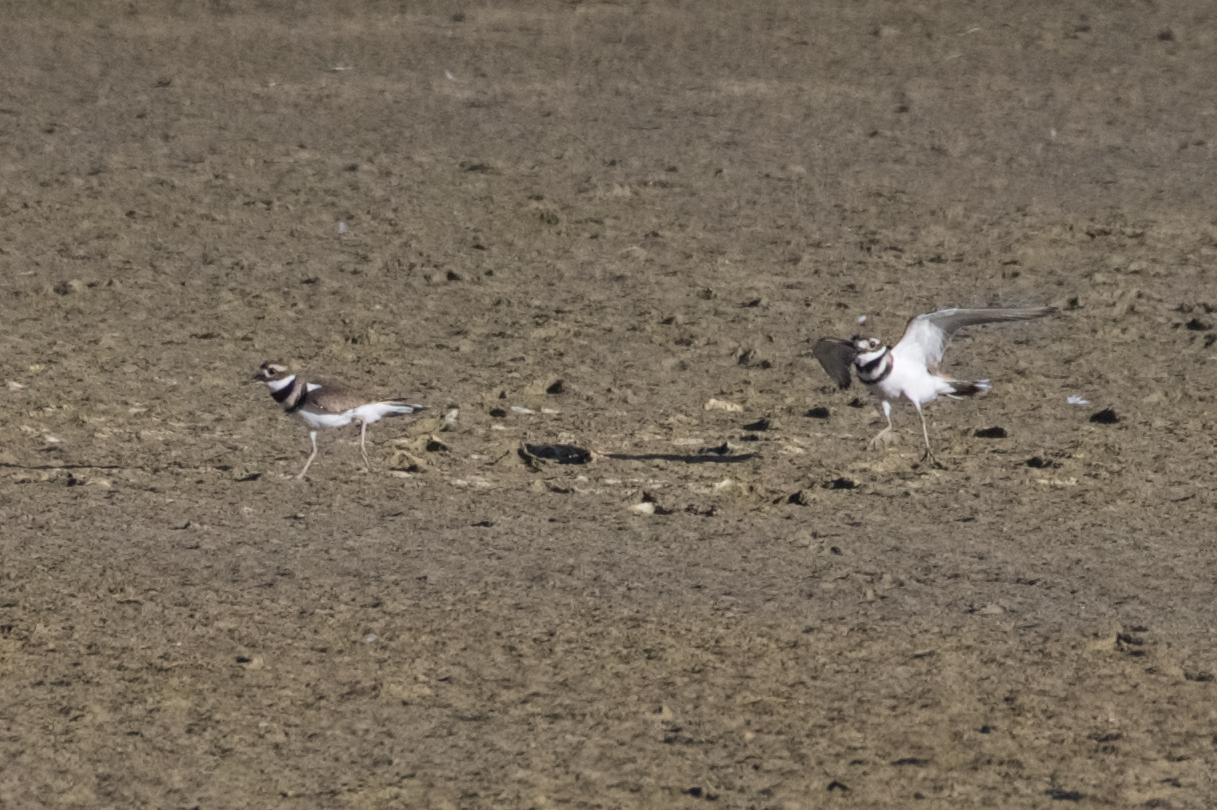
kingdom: Animalia
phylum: Chordata
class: Aves
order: Charadriiformes
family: Charadriidae
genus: Charadrius
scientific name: Charadrius vociferus
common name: Killdeer
